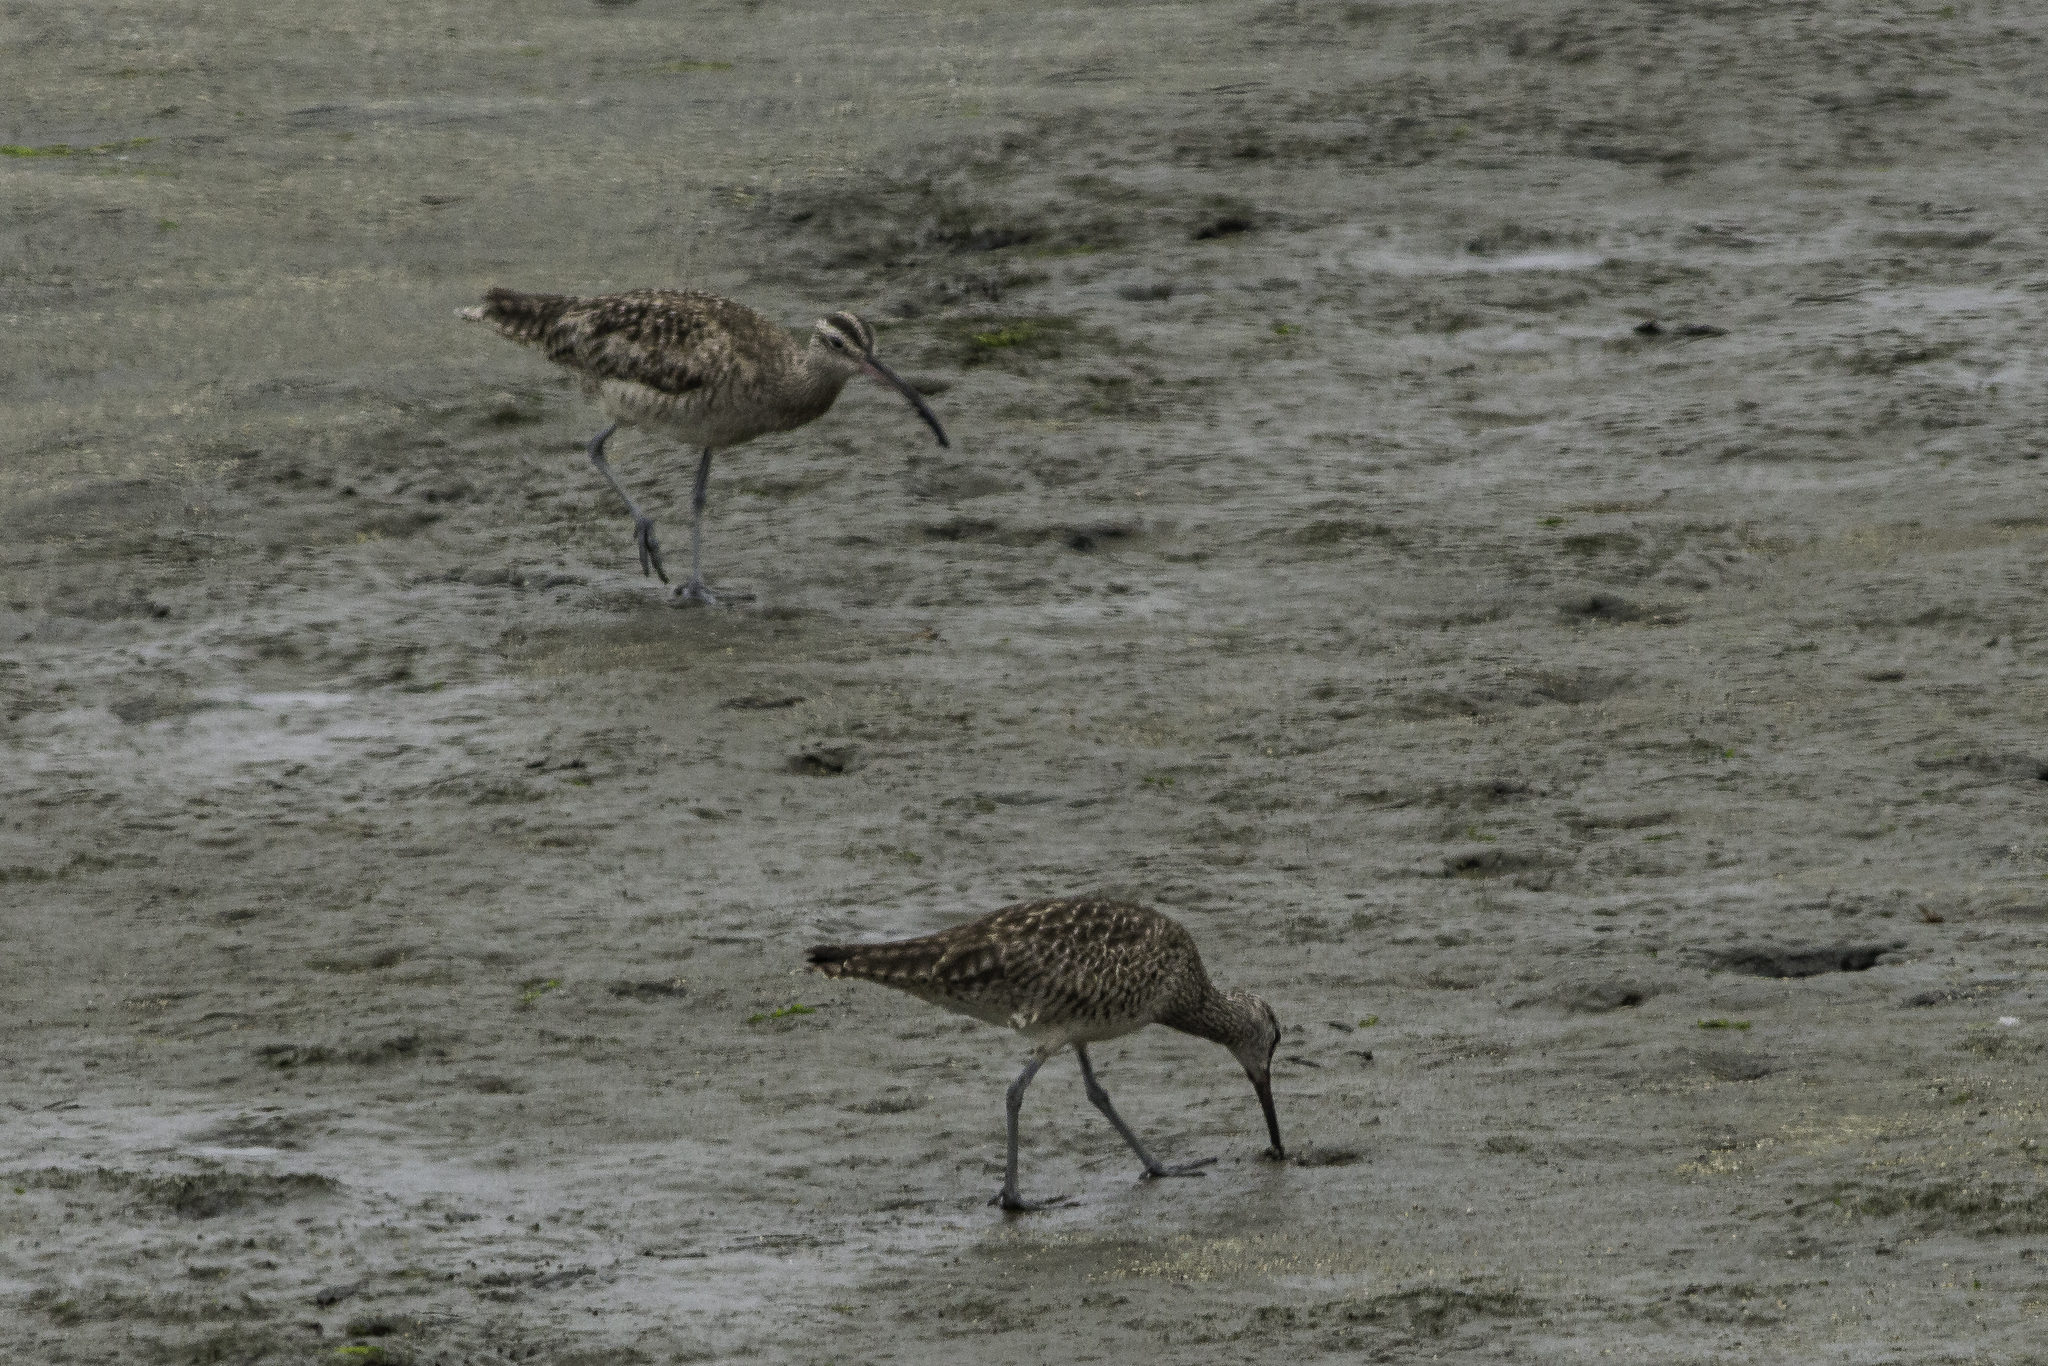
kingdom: Animalia
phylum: Chordata
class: Aves
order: Charadriiformes
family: Scolopacidae
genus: Numenius
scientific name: Numenius phaeopus
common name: Whimbrel
